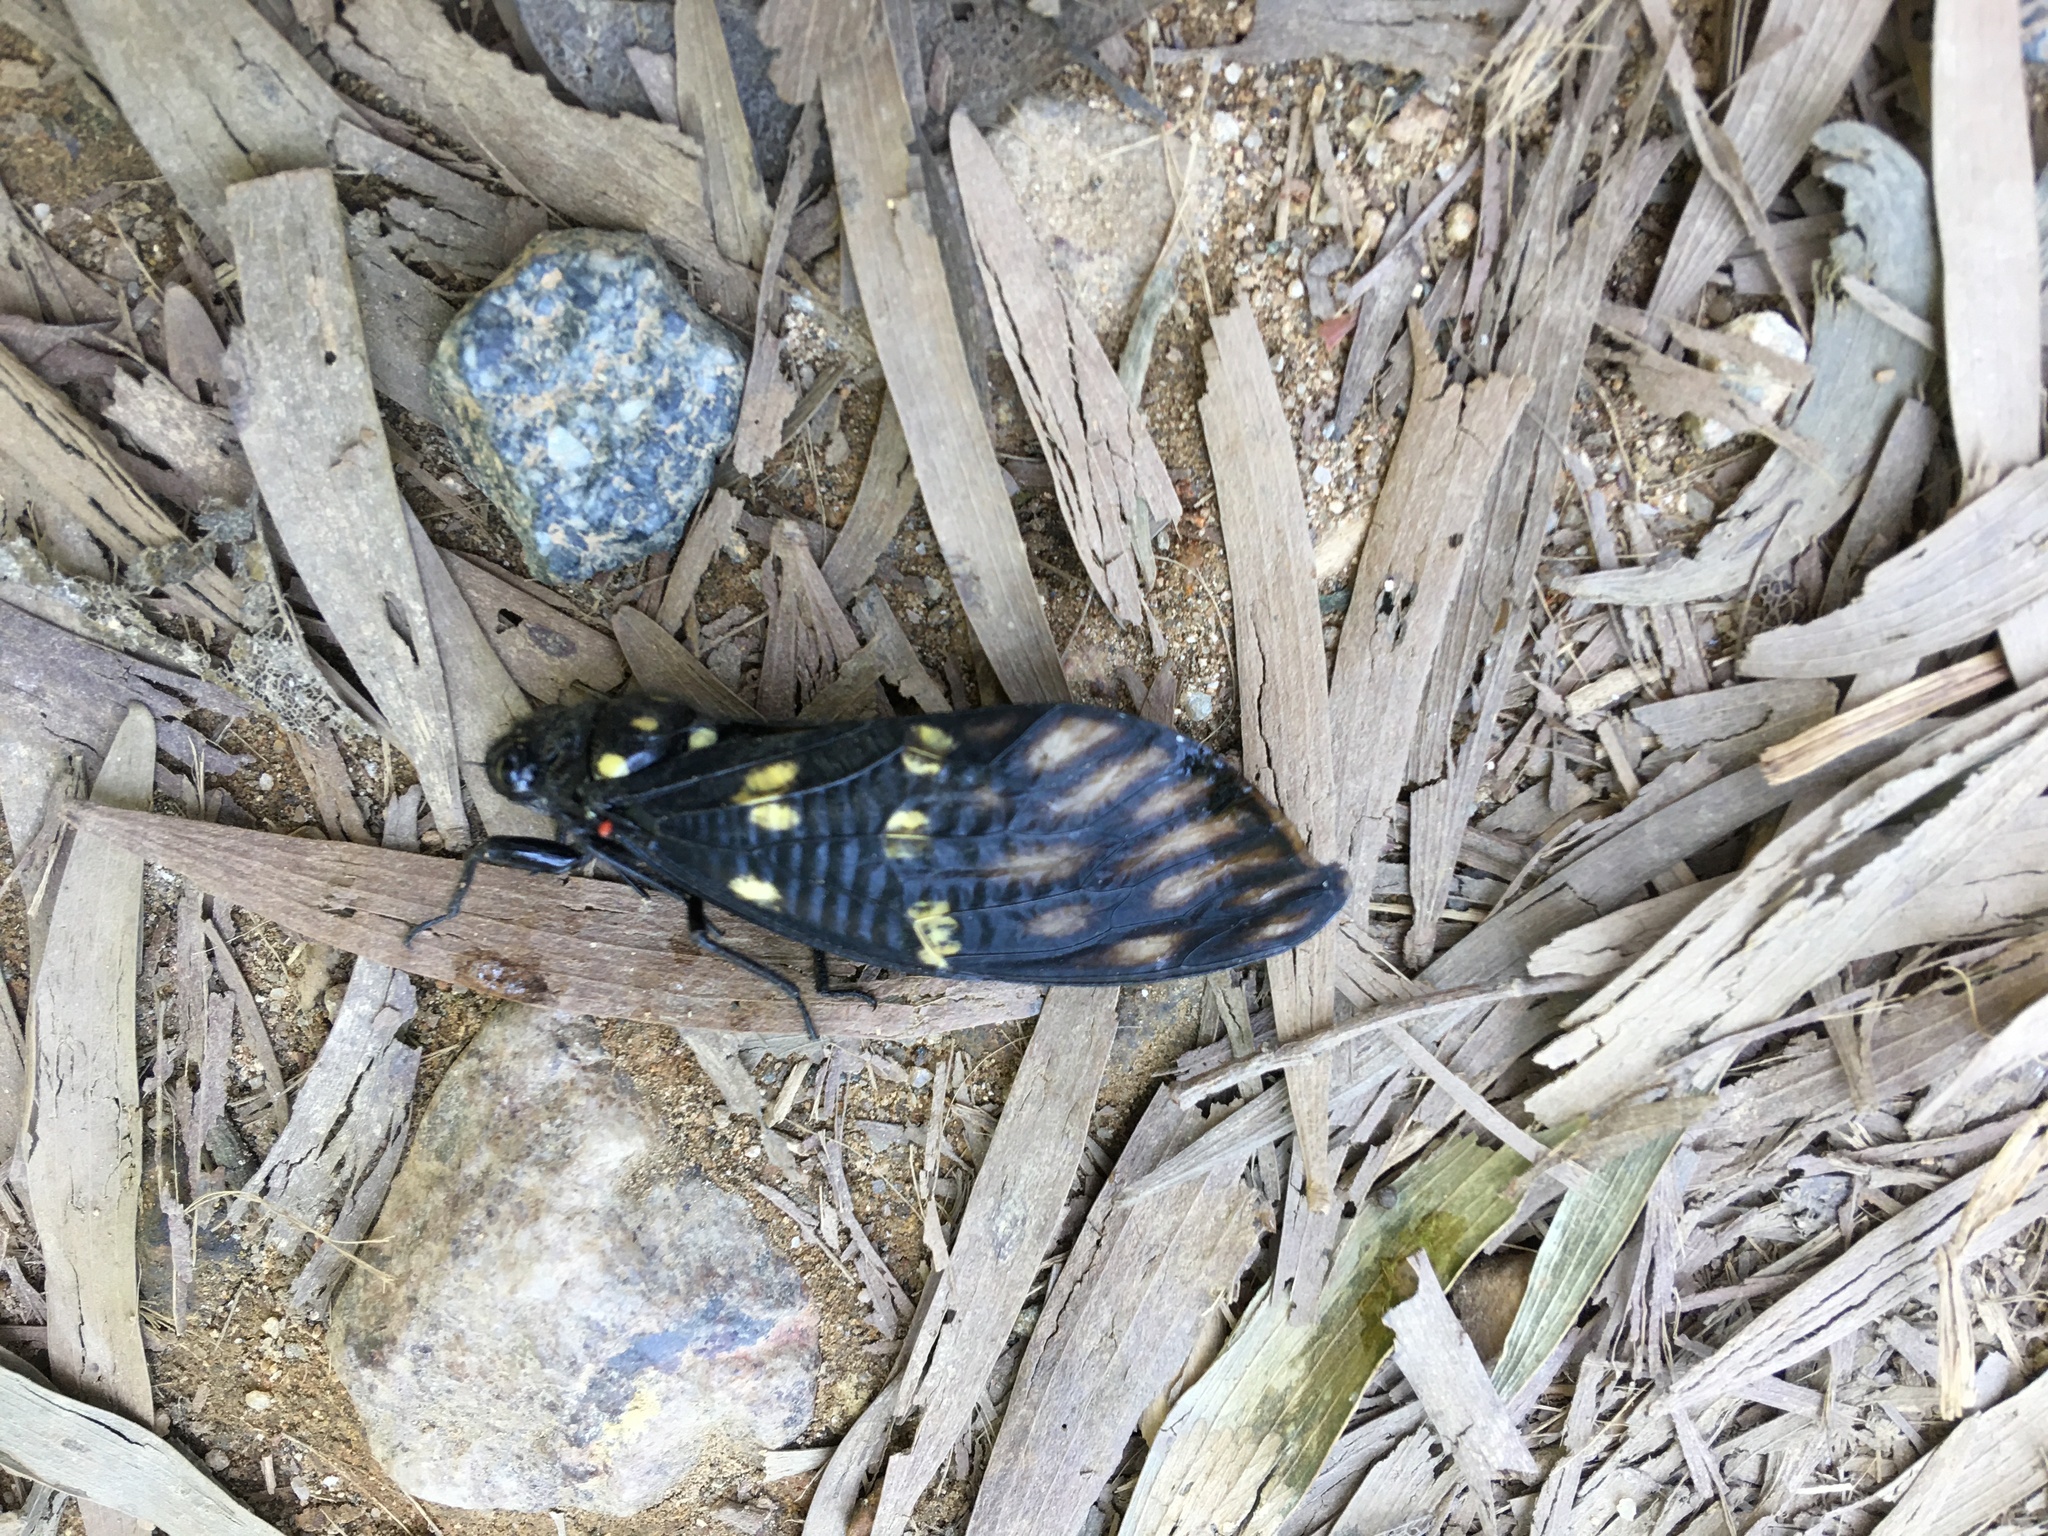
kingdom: Animalia
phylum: Arthropoda
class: Insecta
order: Hemiptera
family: Cicadidae
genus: Gaeana
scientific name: Gaeana maculata
